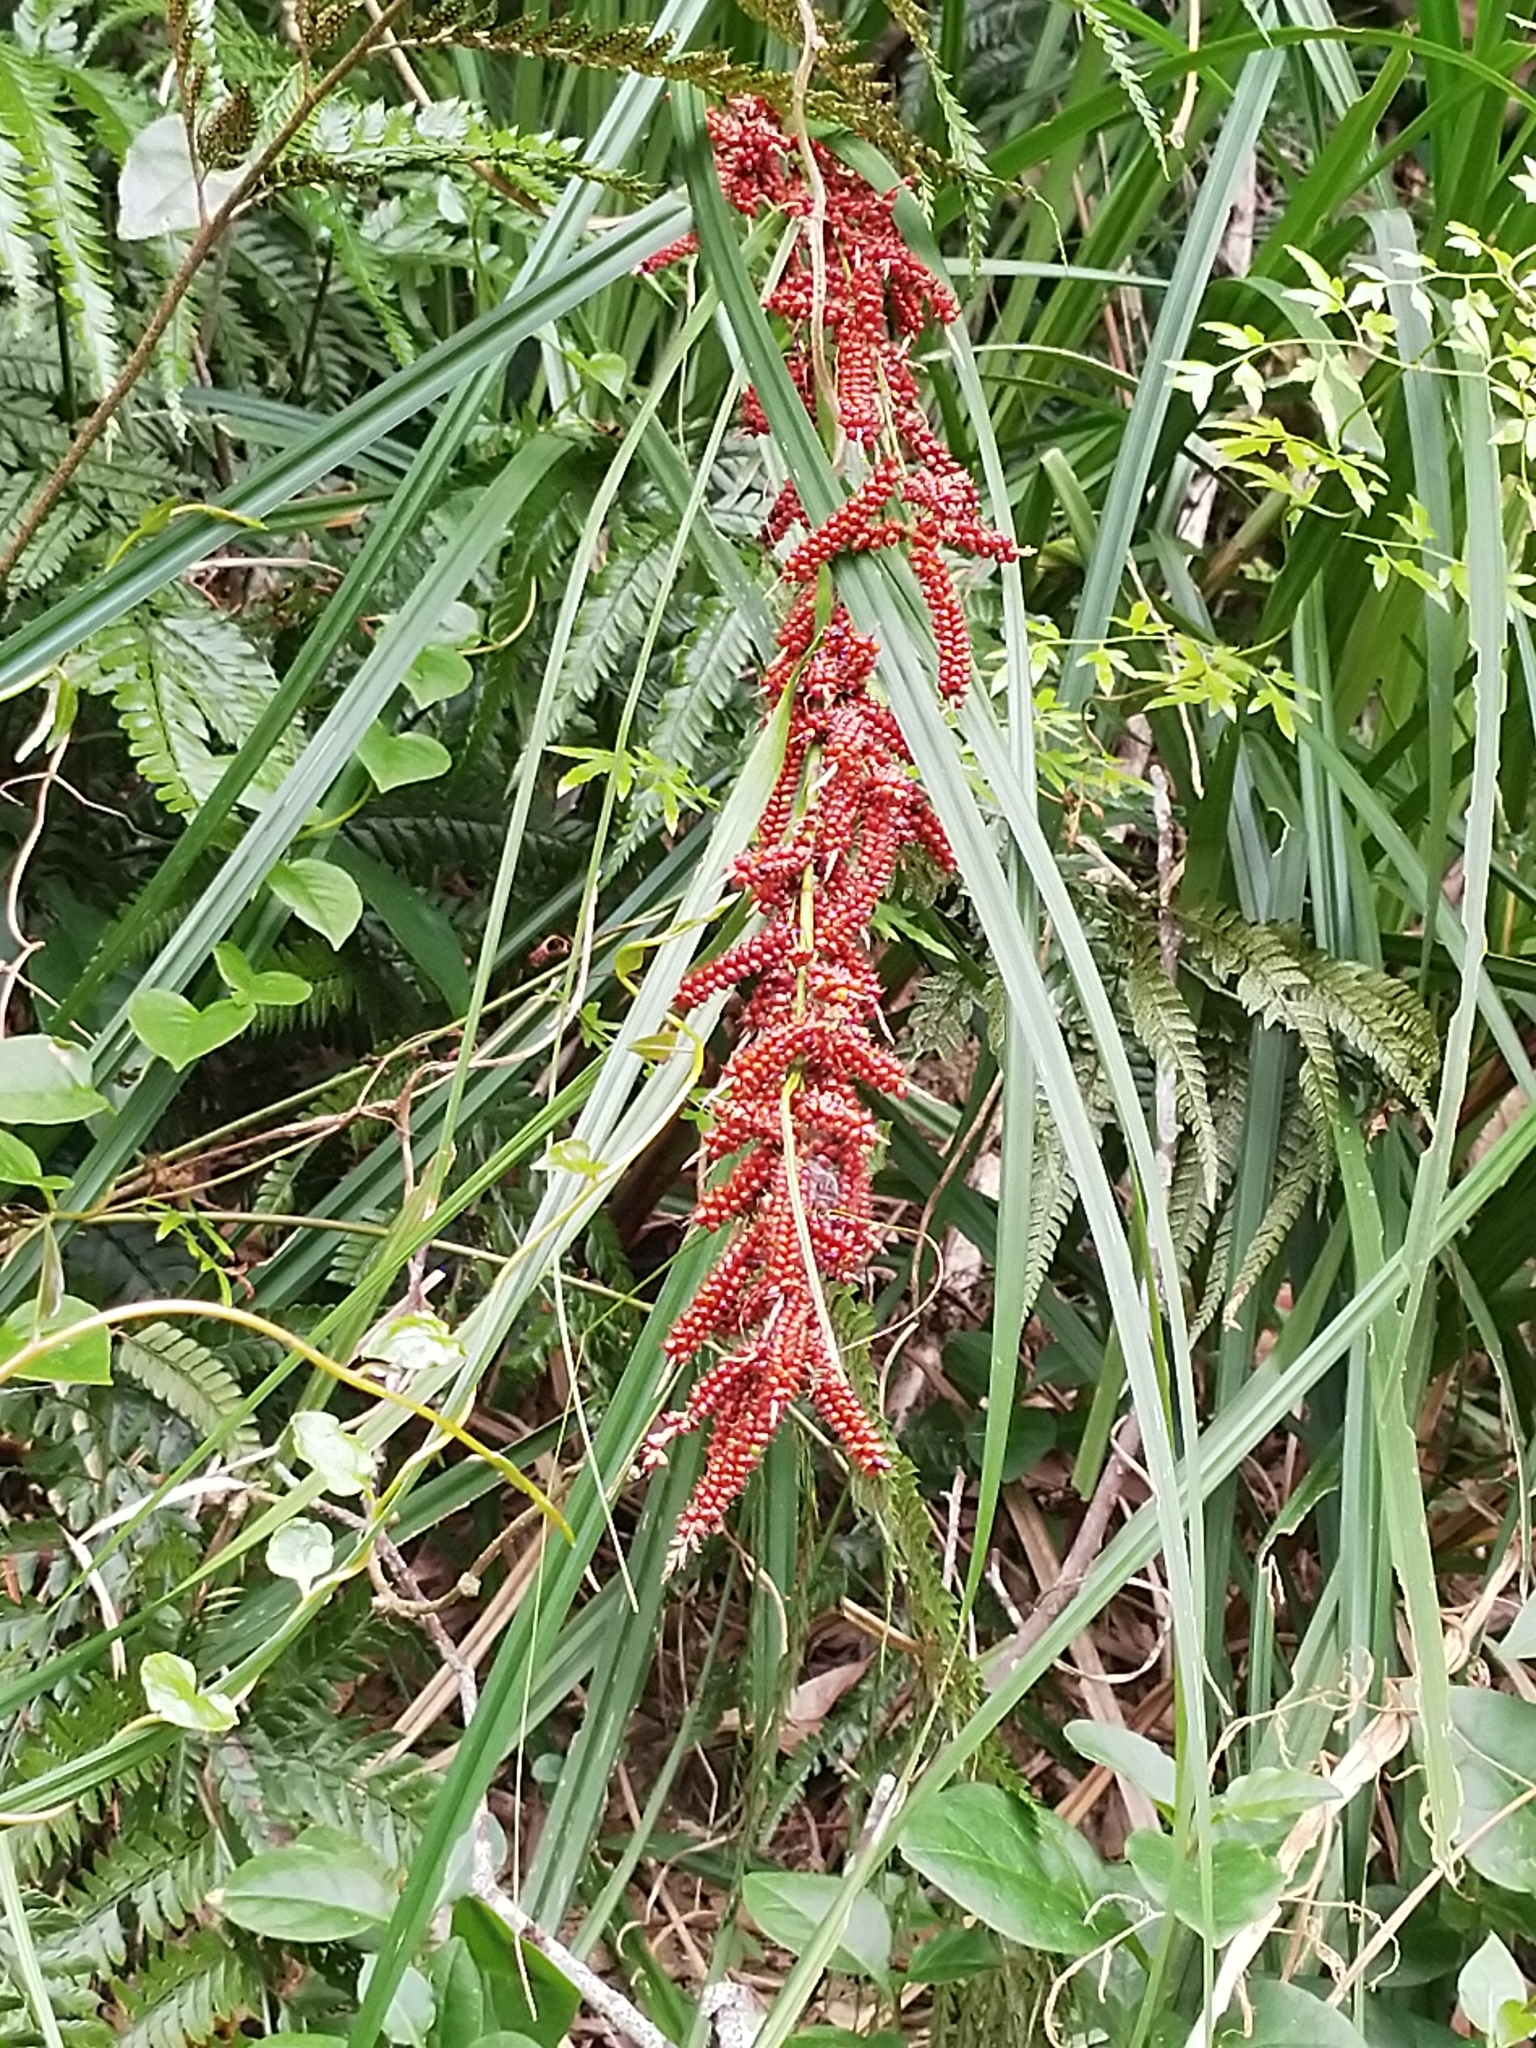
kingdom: Plantae
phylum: Tracheophyta
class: Liliopsida
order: Poales
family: Cyperaceae
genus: Carex
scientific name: Carex baccans
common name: Crimson seeded sedge
